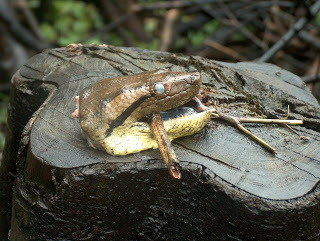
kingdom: Animalia
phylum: Chordata
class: Squamata
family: Boidae
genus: Eunectes
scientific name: Eunectes murinus
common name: Anaconda
